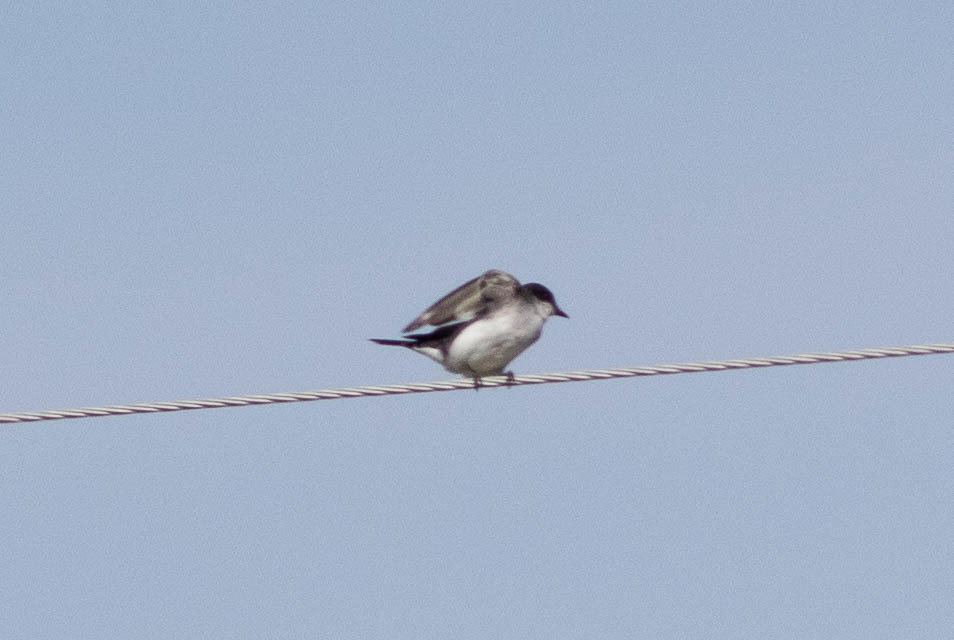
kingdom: Animalia
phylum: Chordata
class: Aves
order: Passeriformes
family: Tyrannidae
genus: Tyrannus
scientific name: Tyrannus tyrannus
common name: Eastern kingbird
